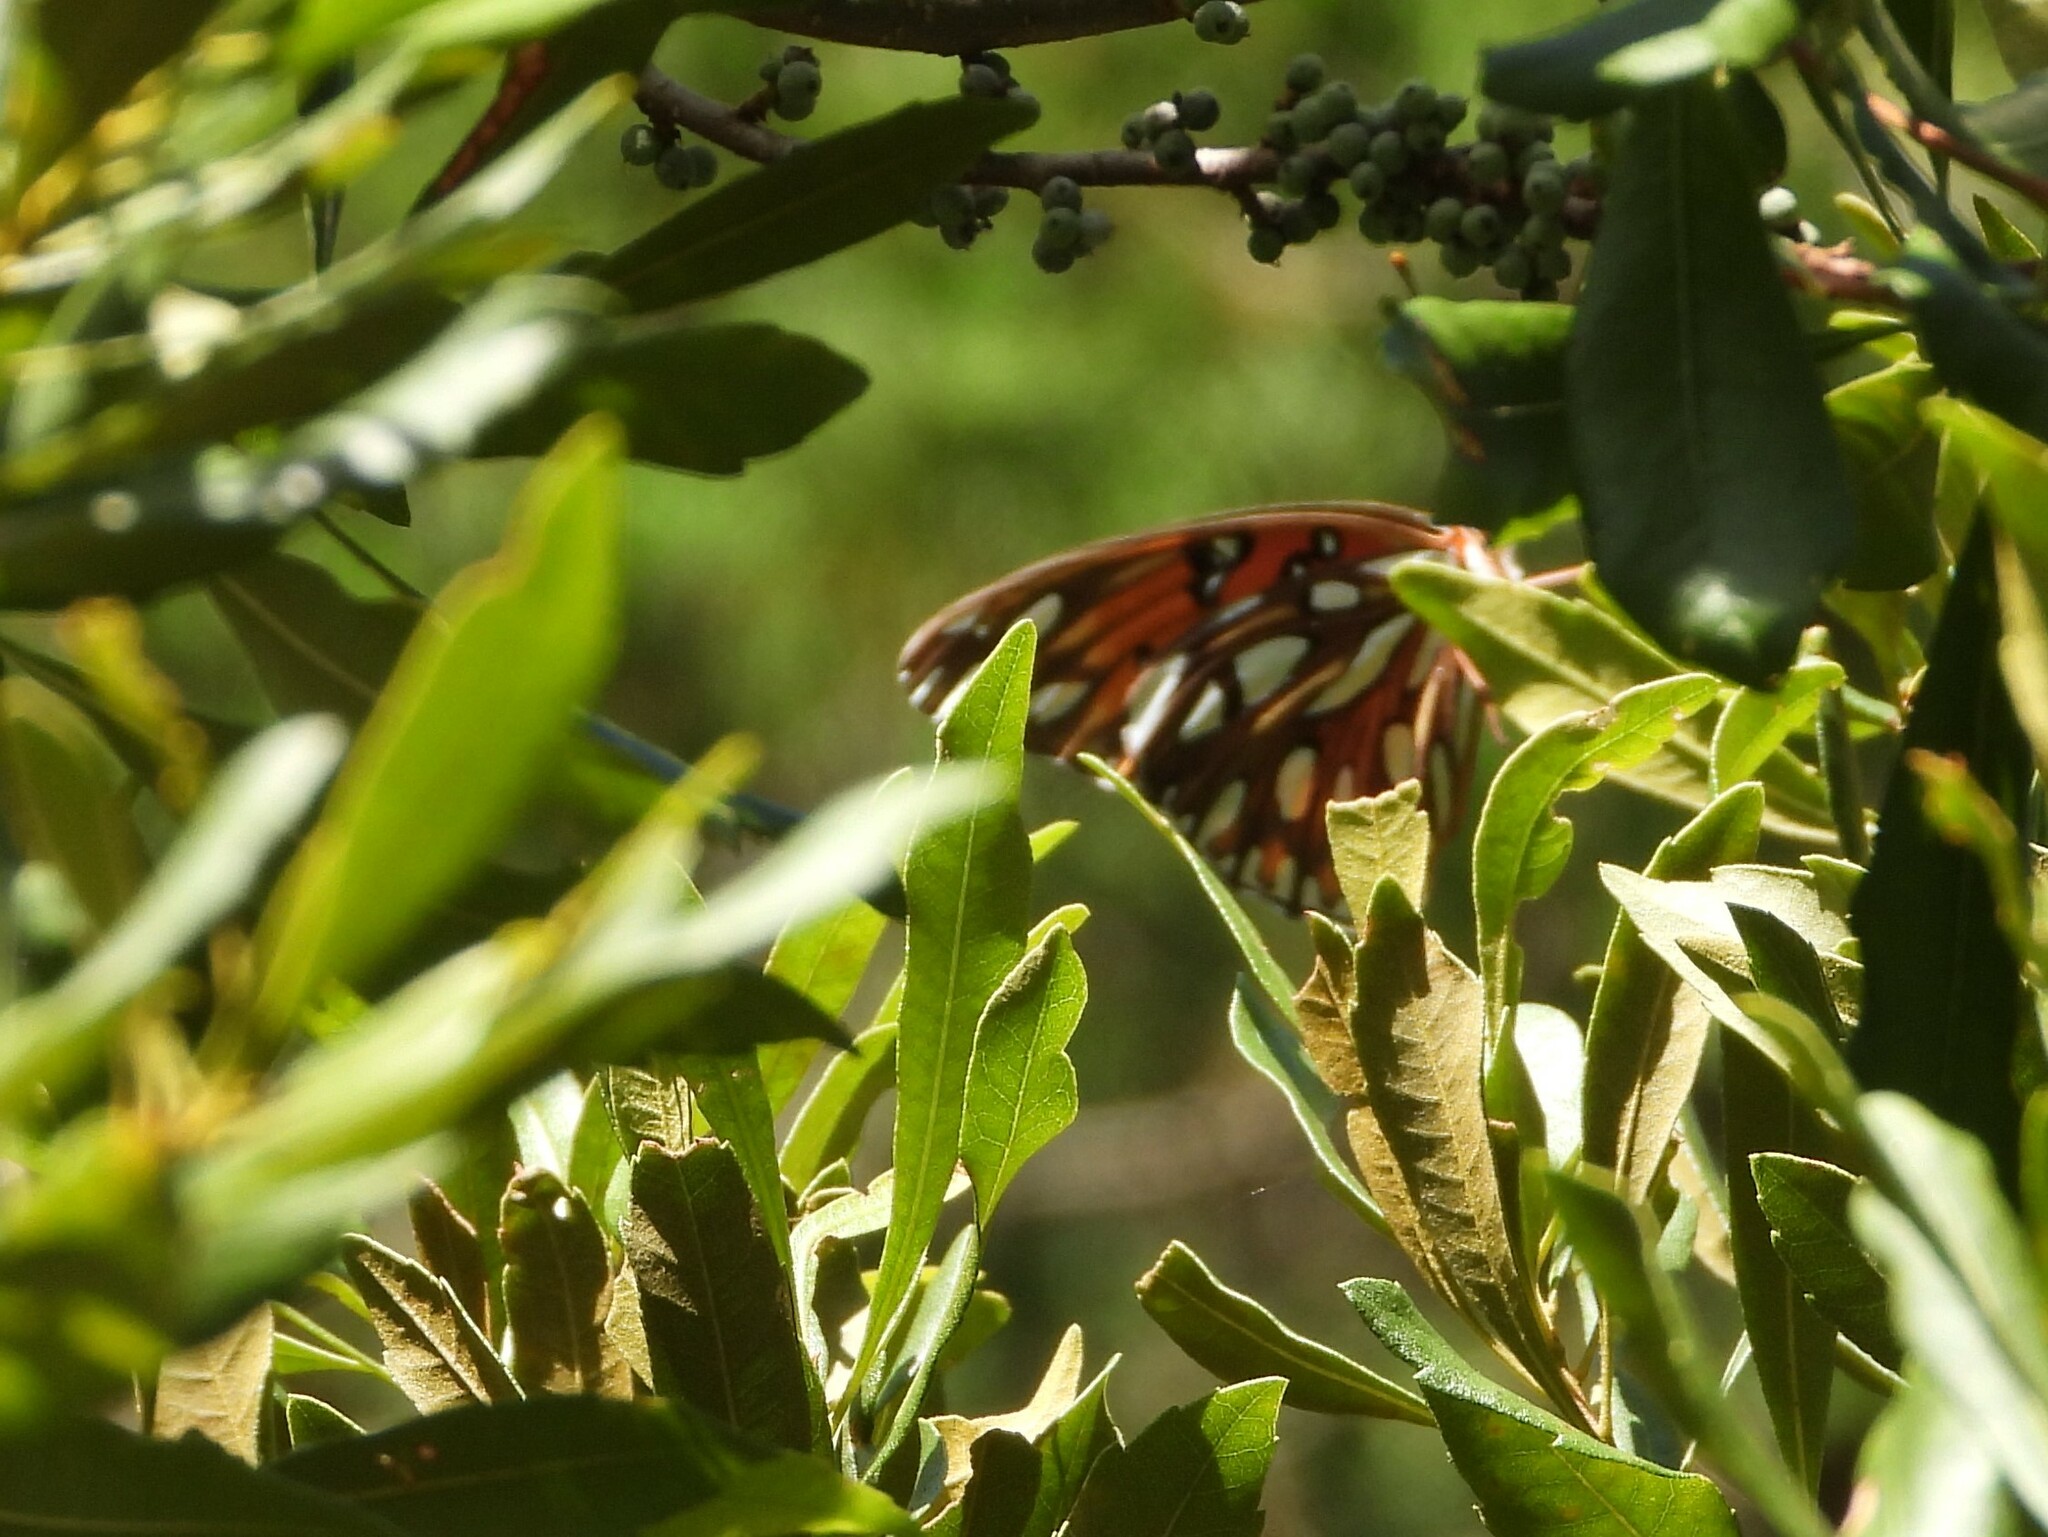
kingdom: Animalia
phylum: Arthropoda
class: Insecta
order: Lepidoptera
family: Nymphalidae
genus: Dione
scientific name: Dione vanillae
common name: Gulf fritillary
